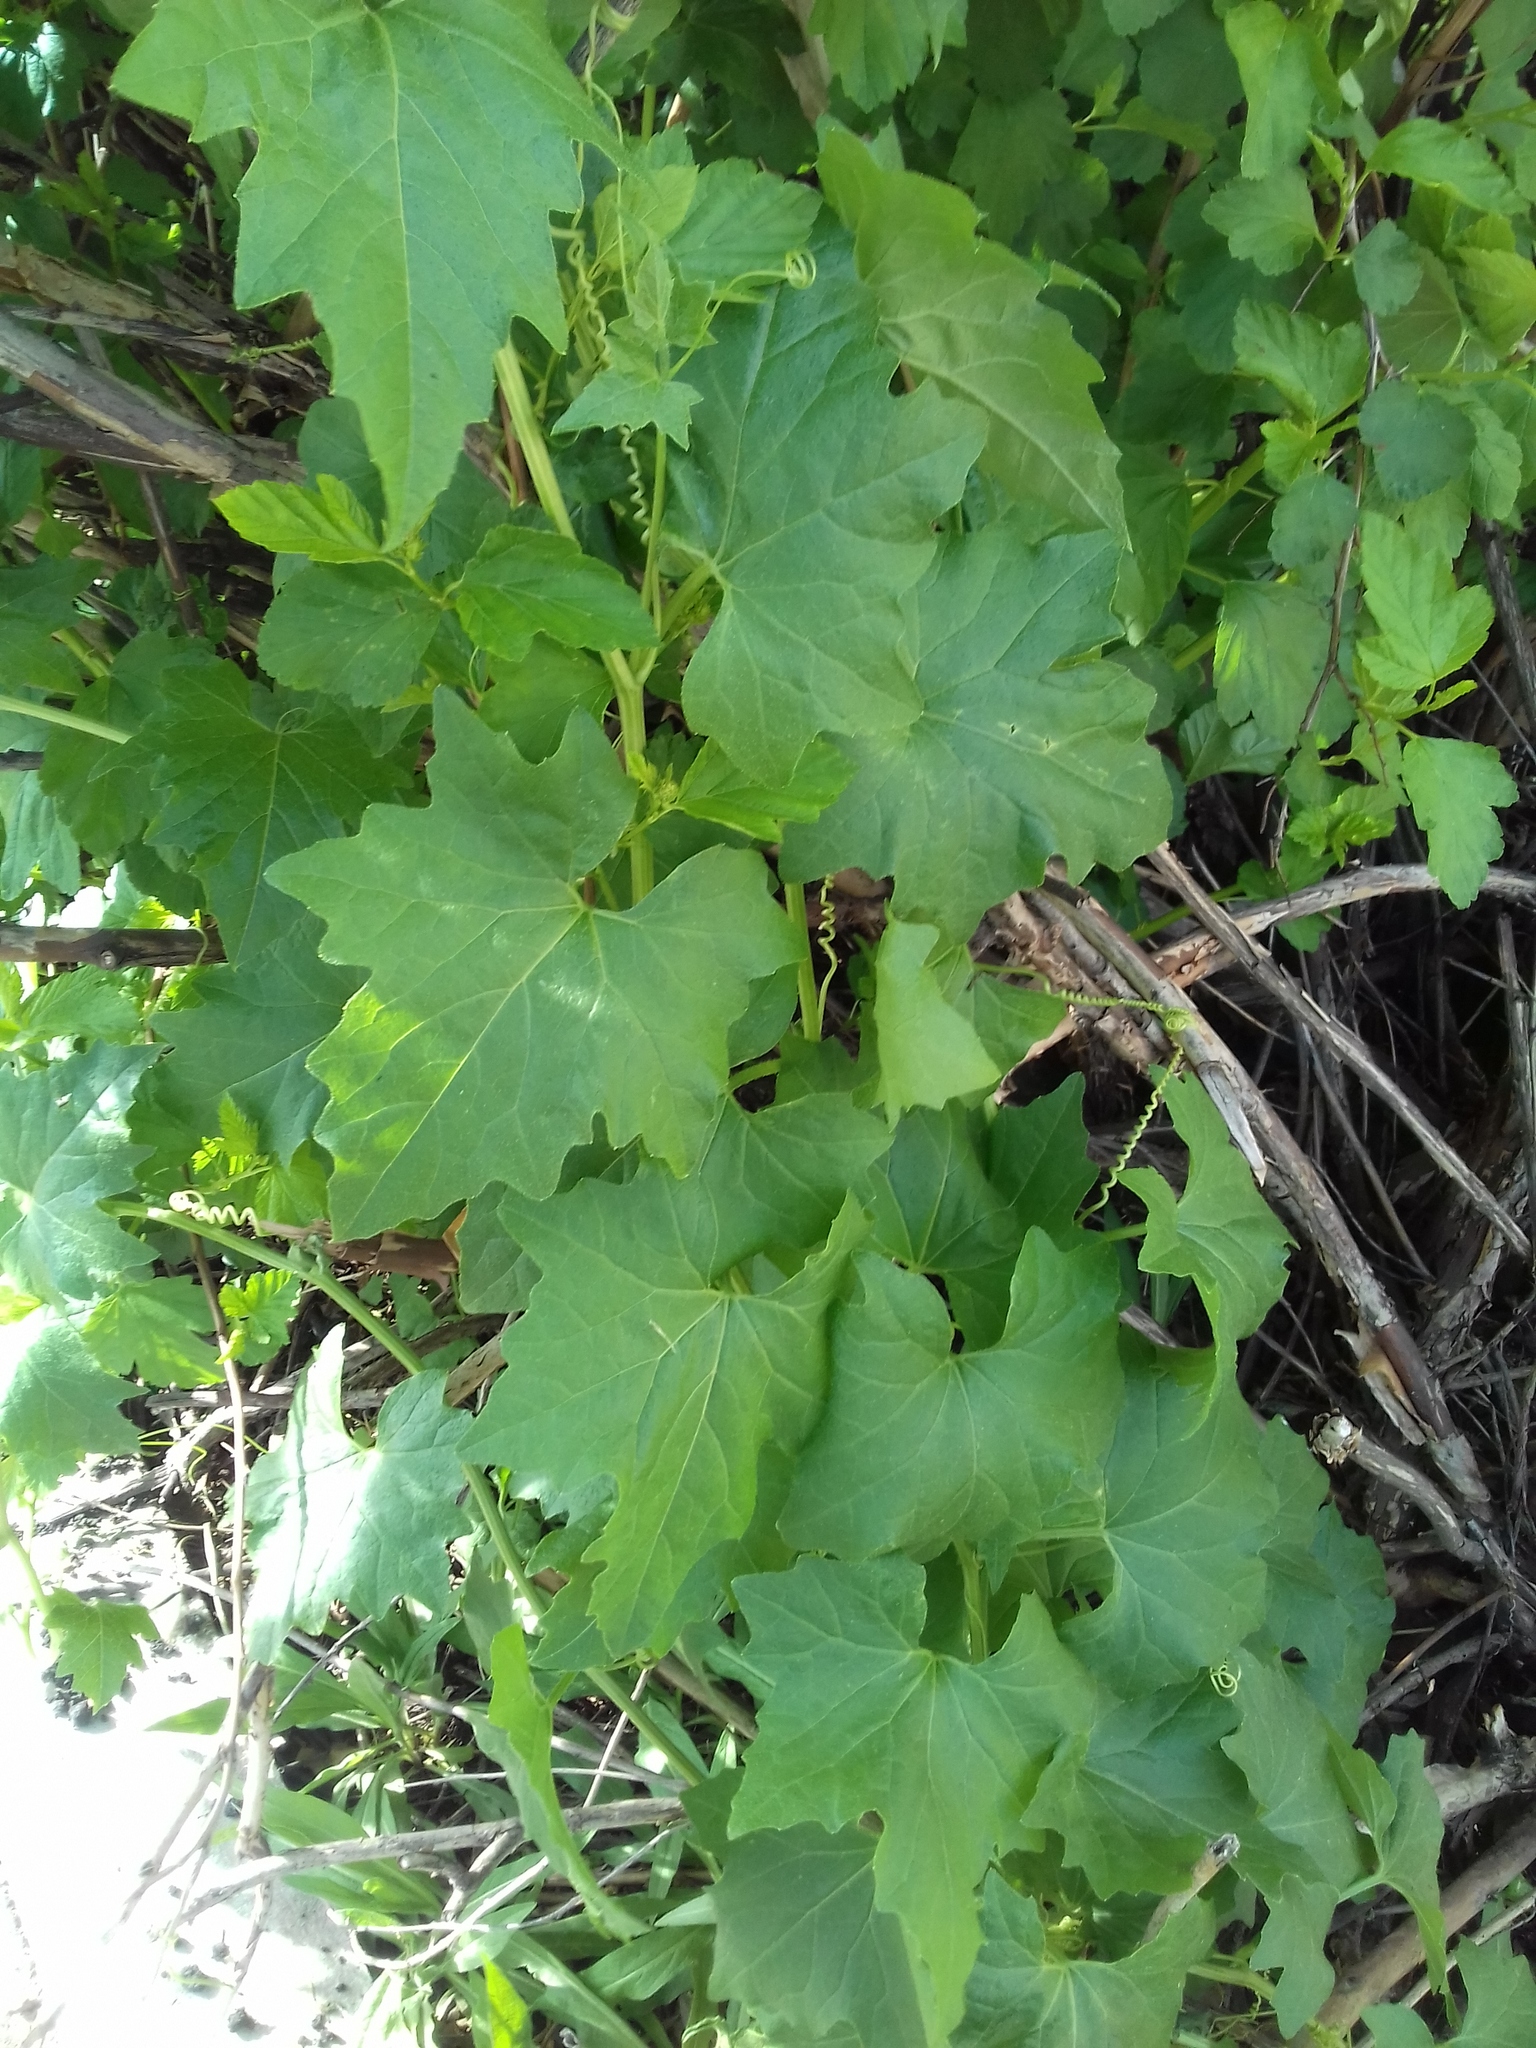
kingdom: Plantae
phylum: Tracheophyta
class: Magnoliopsida
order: Cucurbitales
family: Cucurbitaceae
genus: Bryonia
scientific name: Bryonia alba
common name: White bryony
